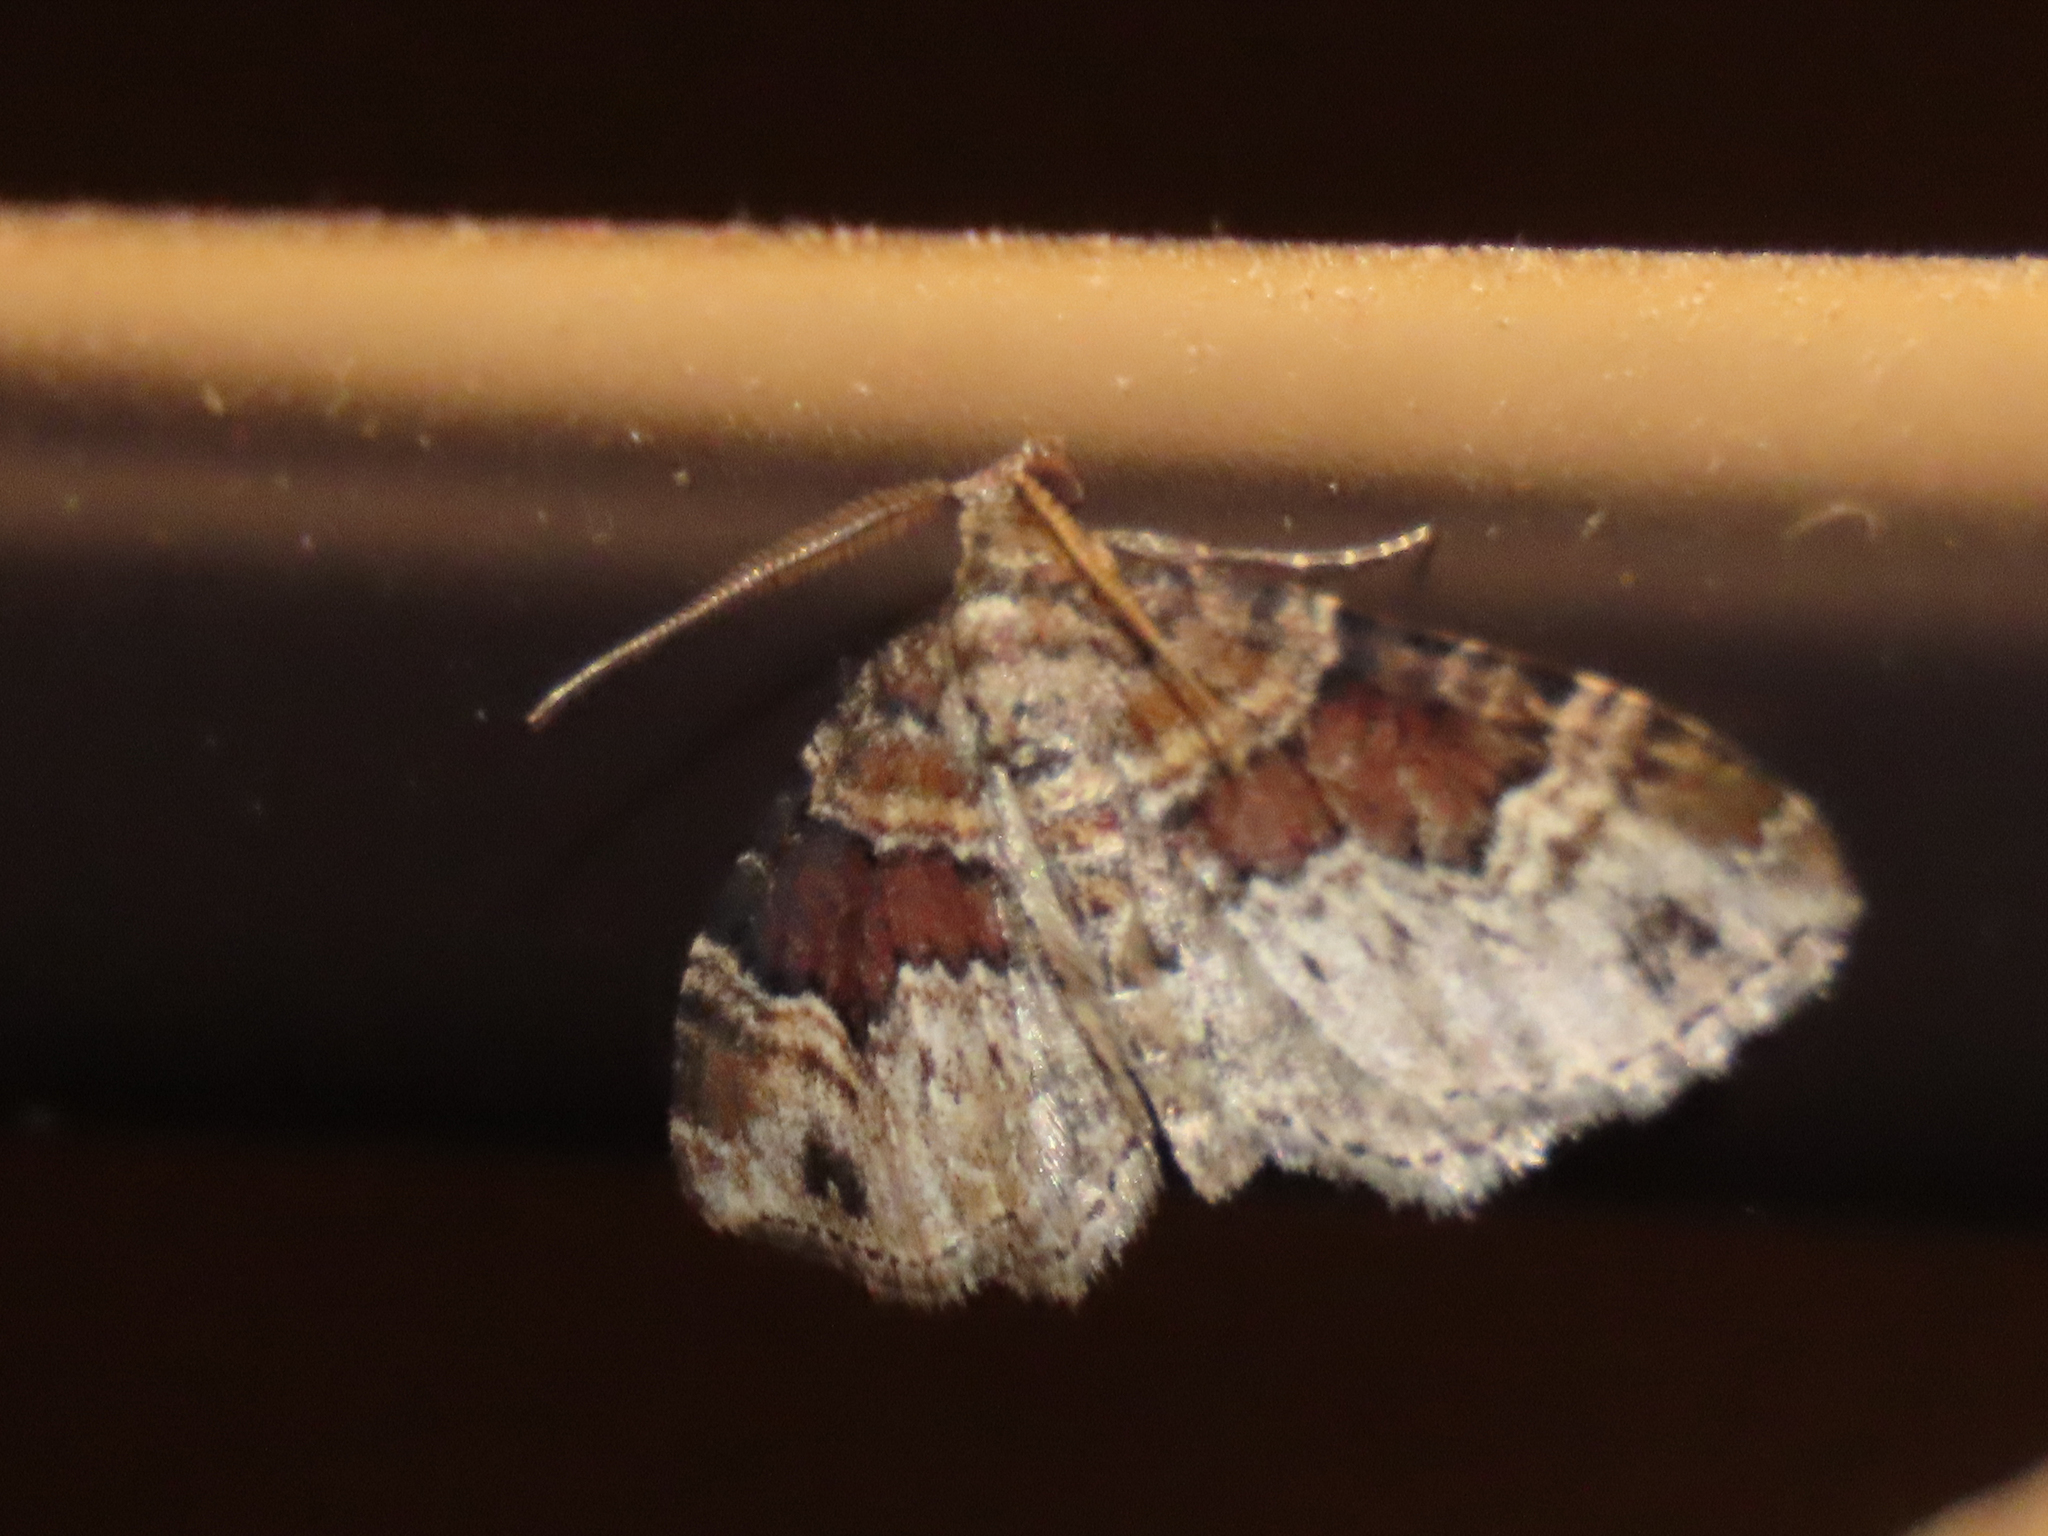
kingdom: Animalia
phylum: Arthropoda
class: Insecta
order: Lepidoptera
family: Geometridae
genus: Xanthorhoe
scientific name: Xanthorhoe ferrugata
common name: Dark-barred twin-spot carpet
